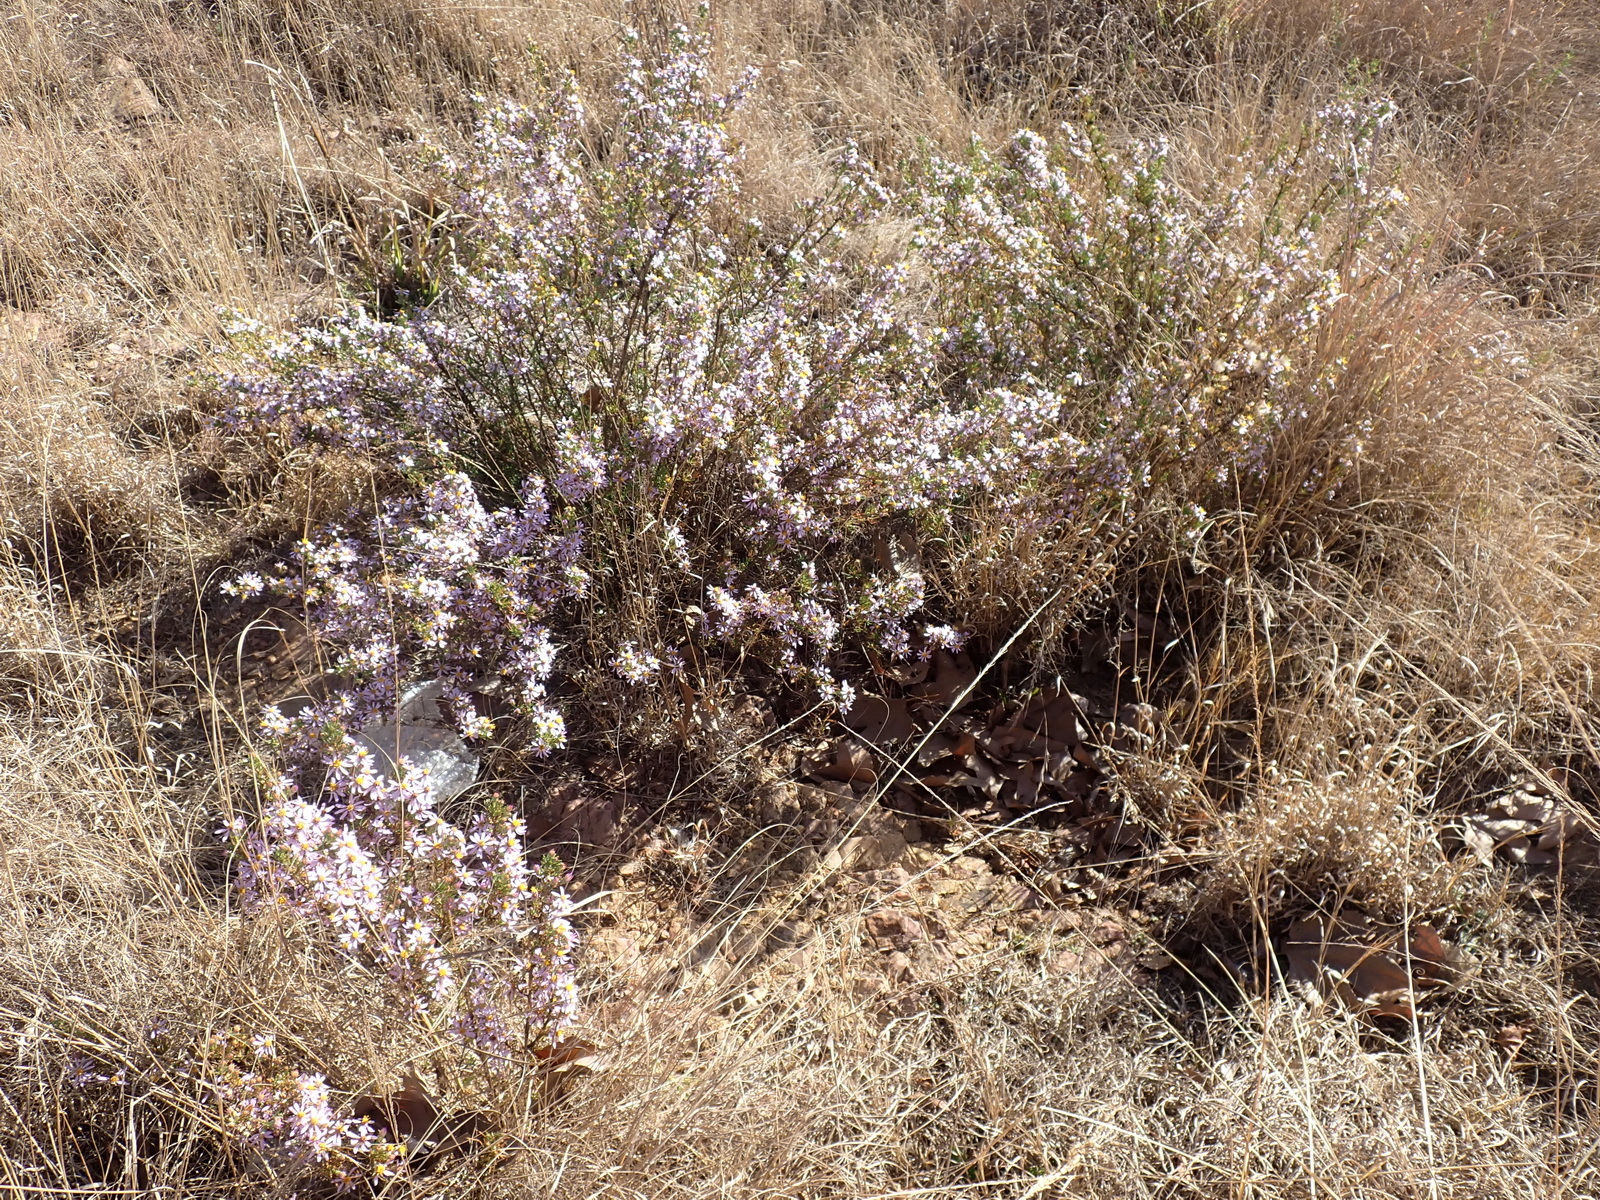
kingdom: Plantae
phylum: Tracheophyta
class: Magnoliopsida
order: Asterales
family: Asteraceae
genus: Felicia
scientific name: Felicia filifolia
